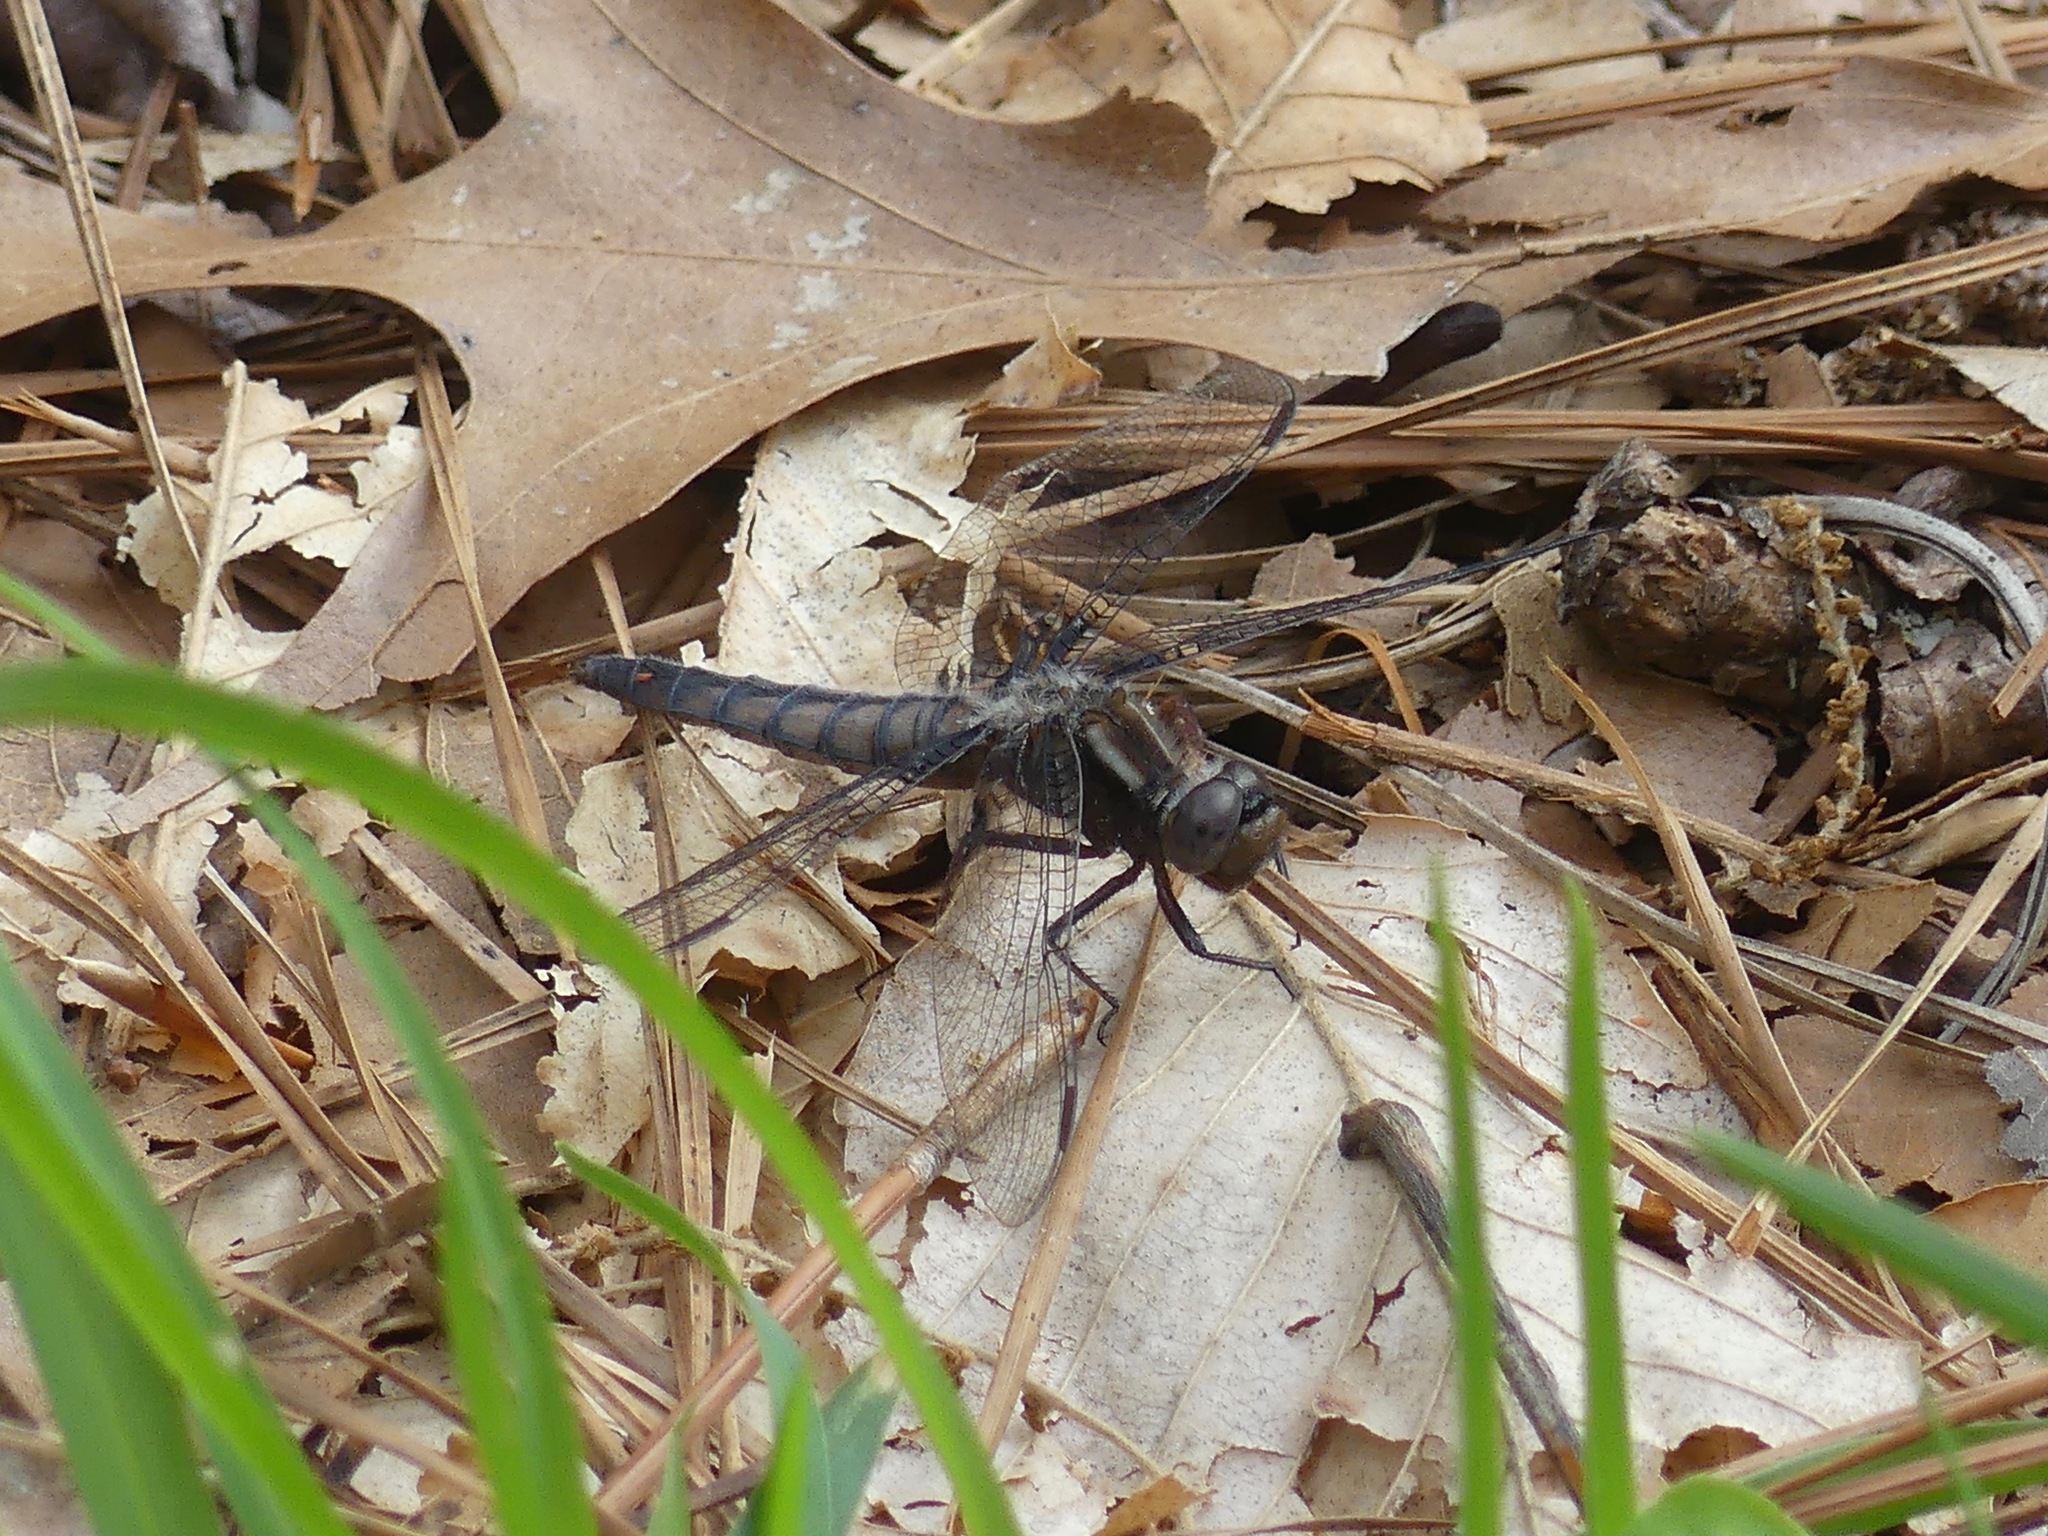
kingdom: Animalia
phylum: Arthropoda
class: Insecta
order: Odonata
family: Libellulidae
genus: Ladona
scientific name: Ladona deplanata
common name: Blue corporal
